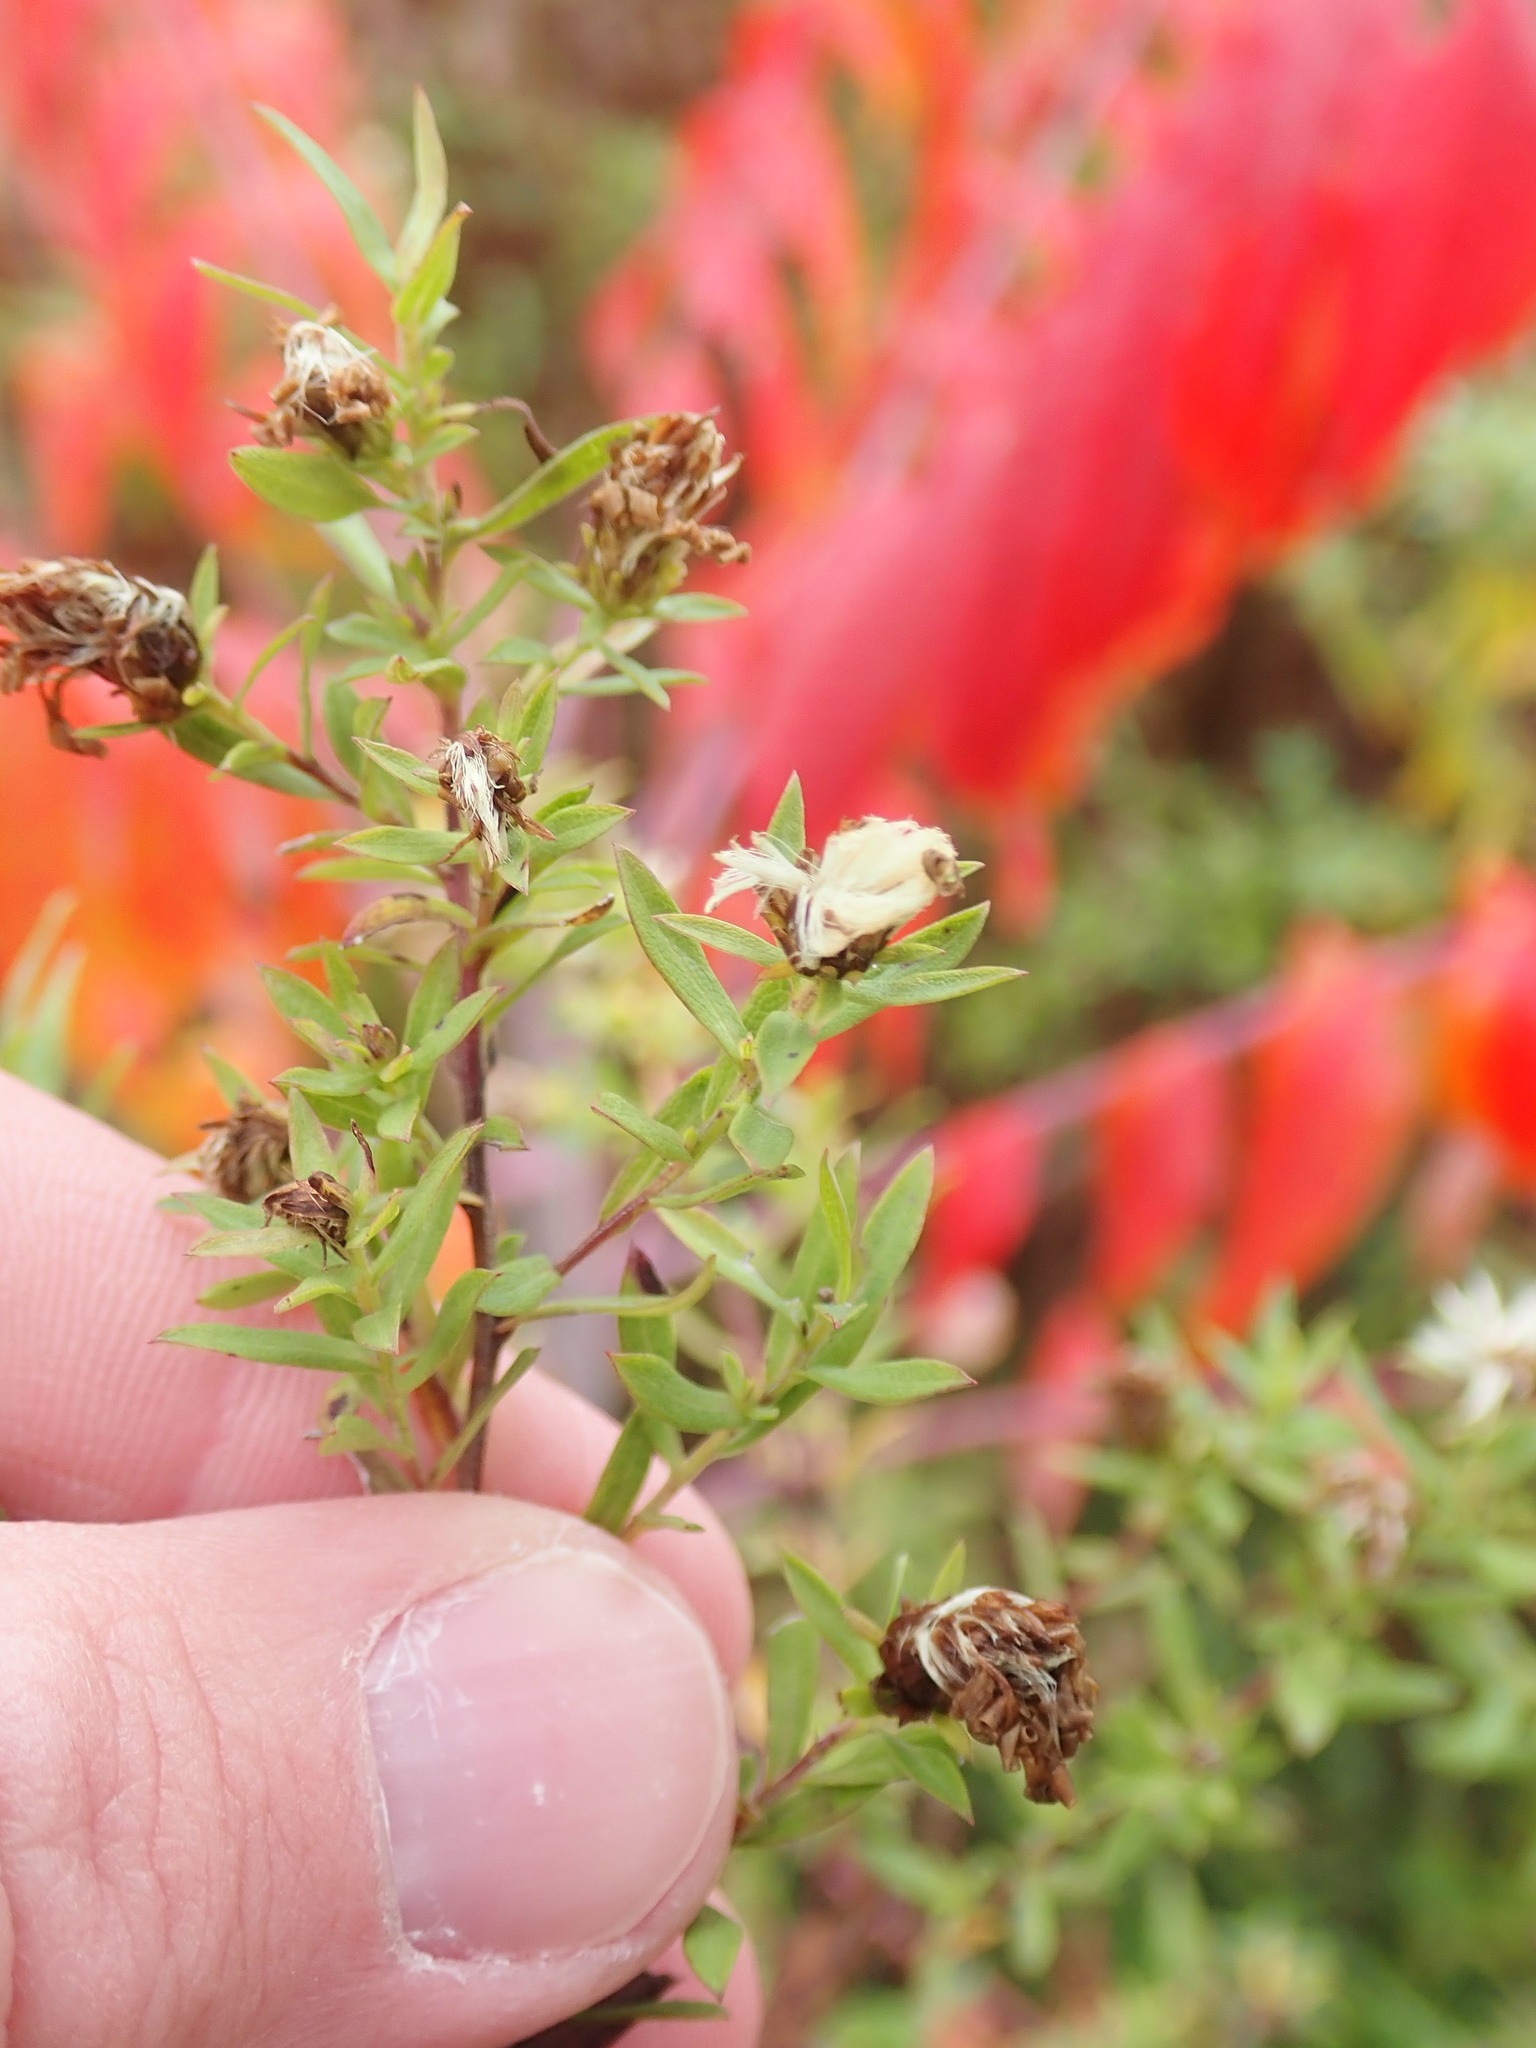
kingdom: Plantae
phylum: Tracheophyta
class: Magnoliopsida
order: Asterales
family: Asteraceae
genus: Symphyotrichum
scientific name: Symphyotrichum ericoides
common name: Heath aster
